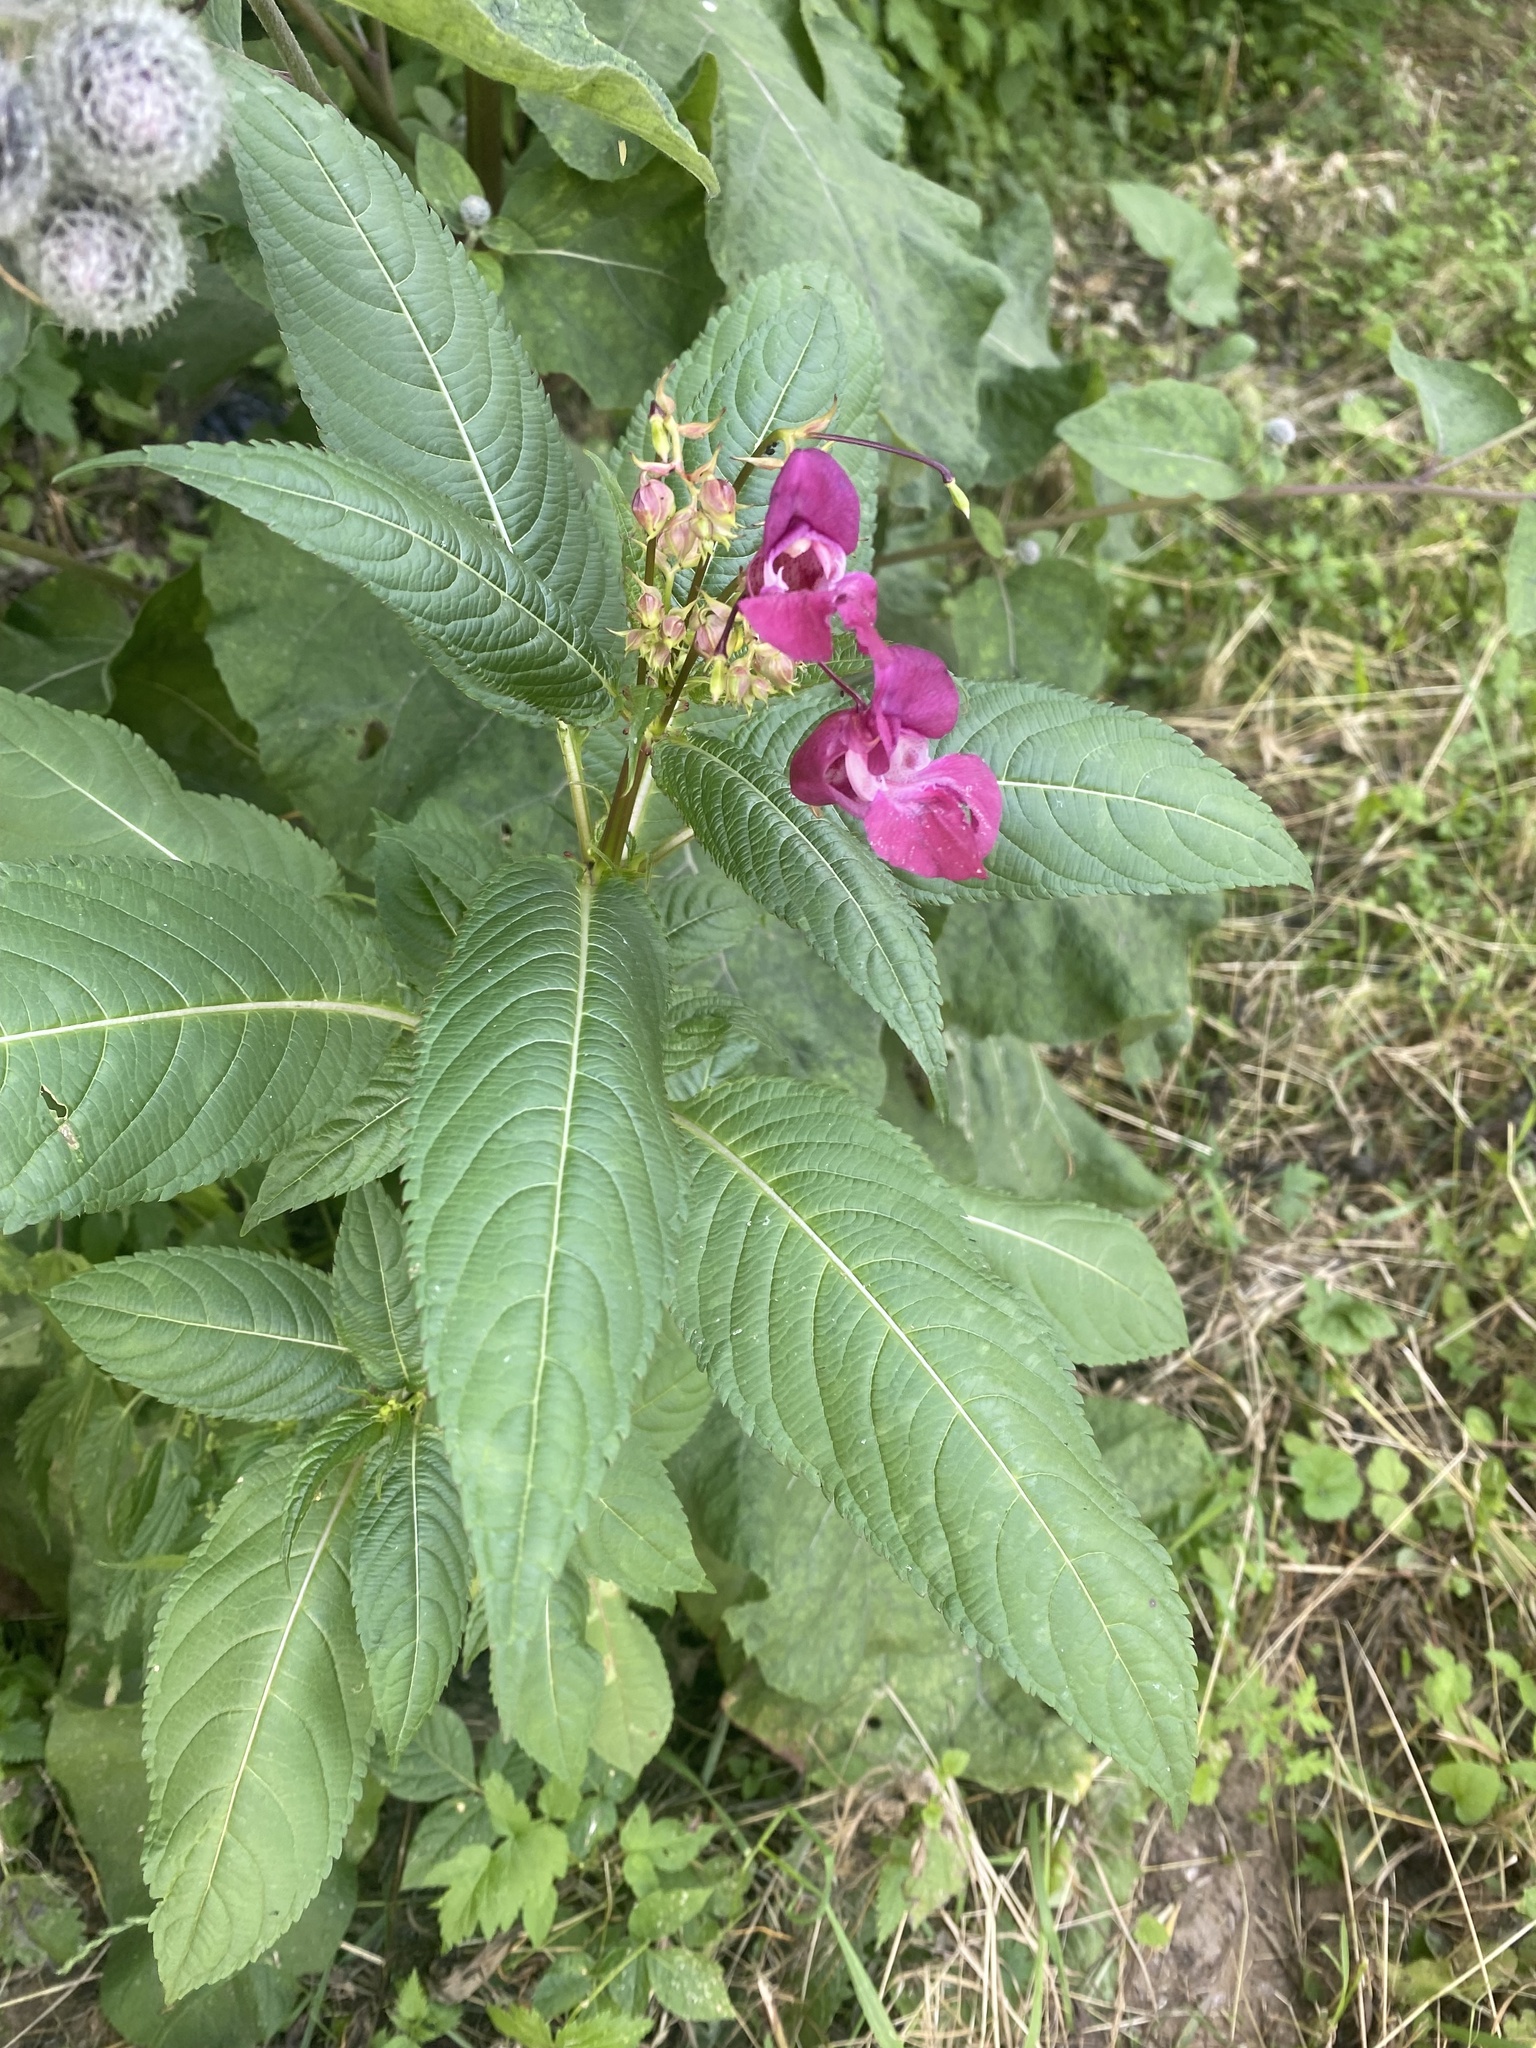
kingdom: Plantae
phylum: Tracheophyta
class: Magnoliopsida
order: Ericales
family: Balsaminaceae
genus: Impatiens
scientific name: Impatiens glandulifera
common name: Himalayan balsam
